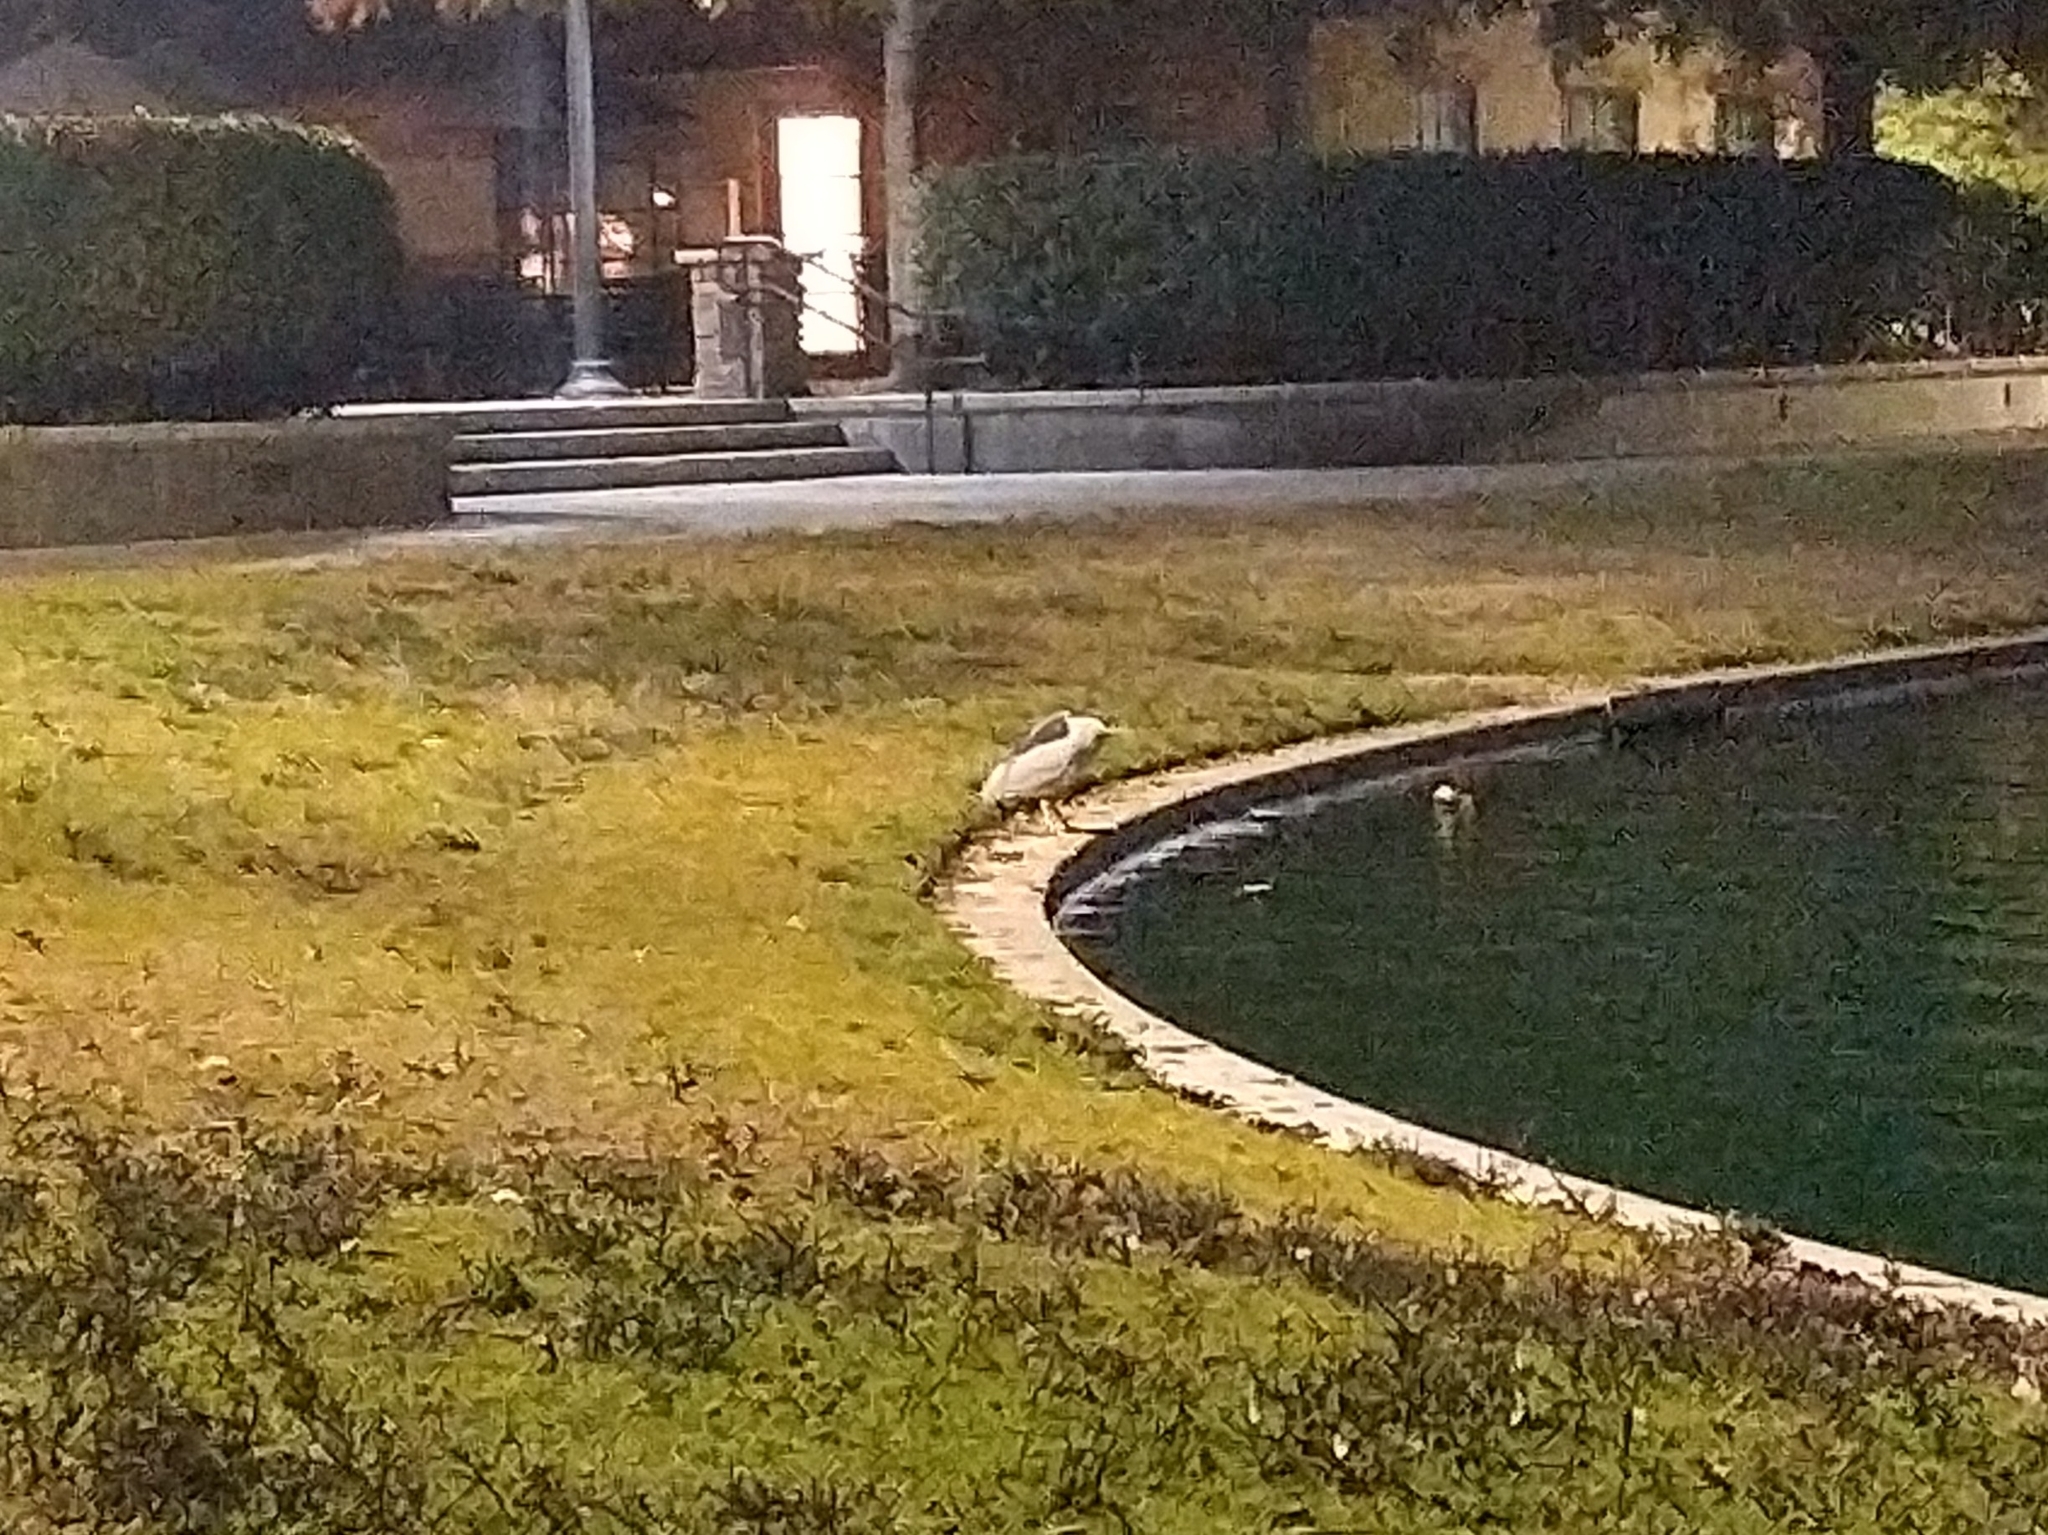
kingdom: Animalia
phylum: Chordata
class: Aves
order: Pelecaniformes
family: Ardeidae
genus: Nycticorax
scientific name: Nycticorax nycticorax
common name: Black-crowned night heron
